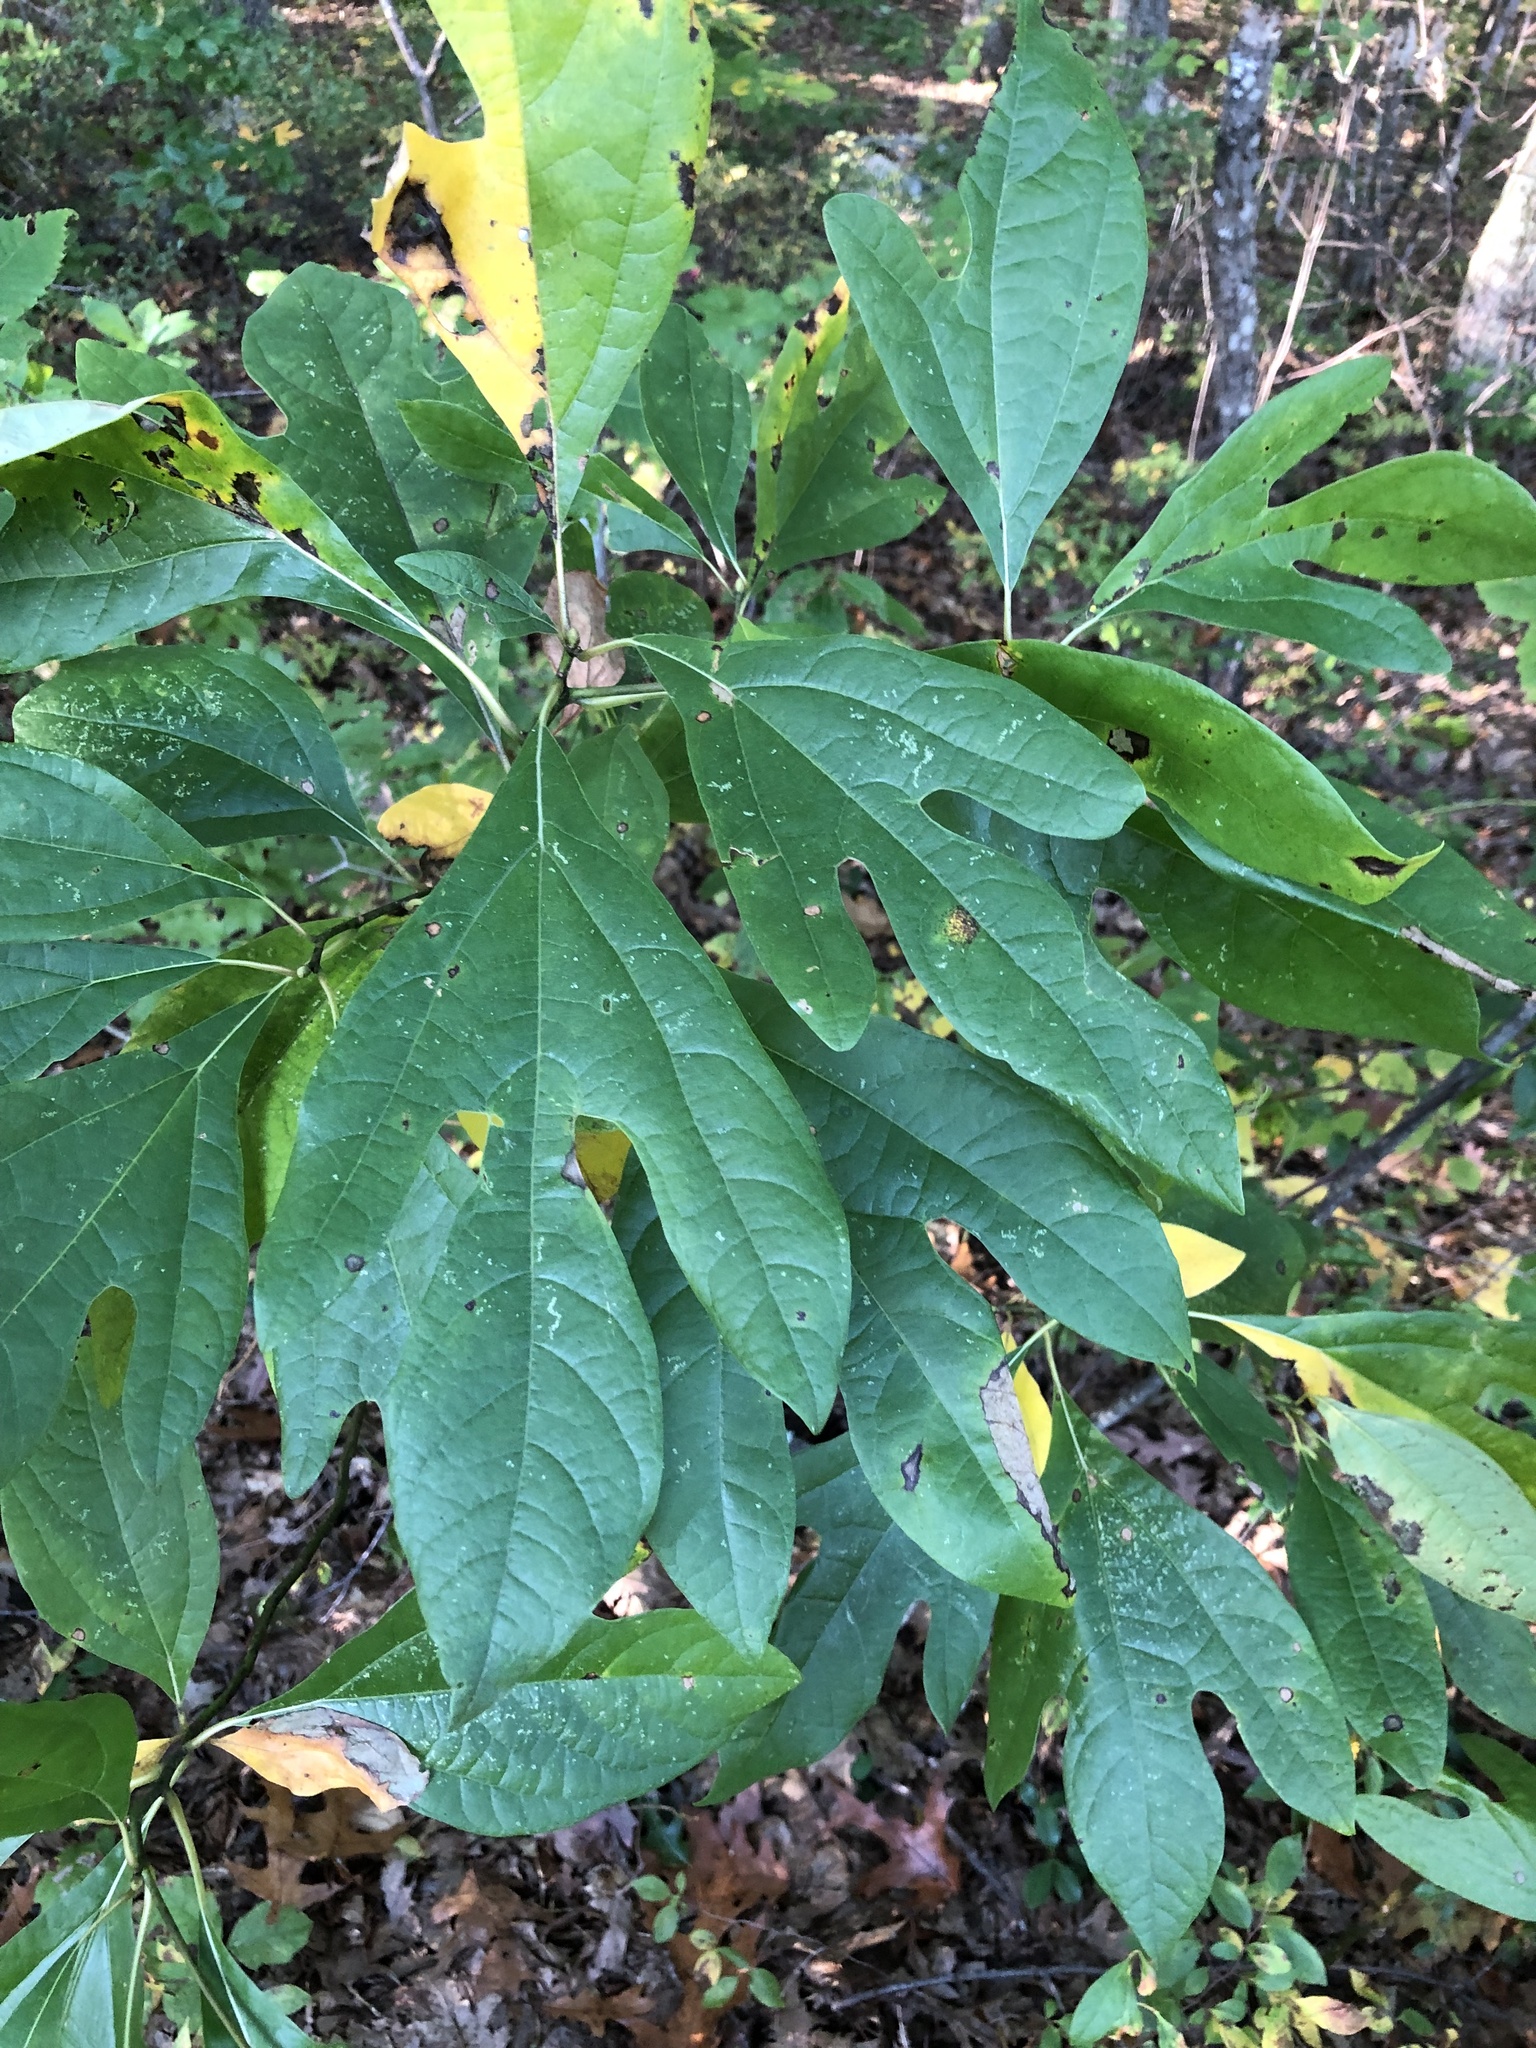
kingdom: Plantae
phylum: Tracheophyta
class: Magnoliopsida
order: Laurales
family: Lauraceae
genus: Sassafras
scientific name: Sassafras albidum
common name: Sassafras
